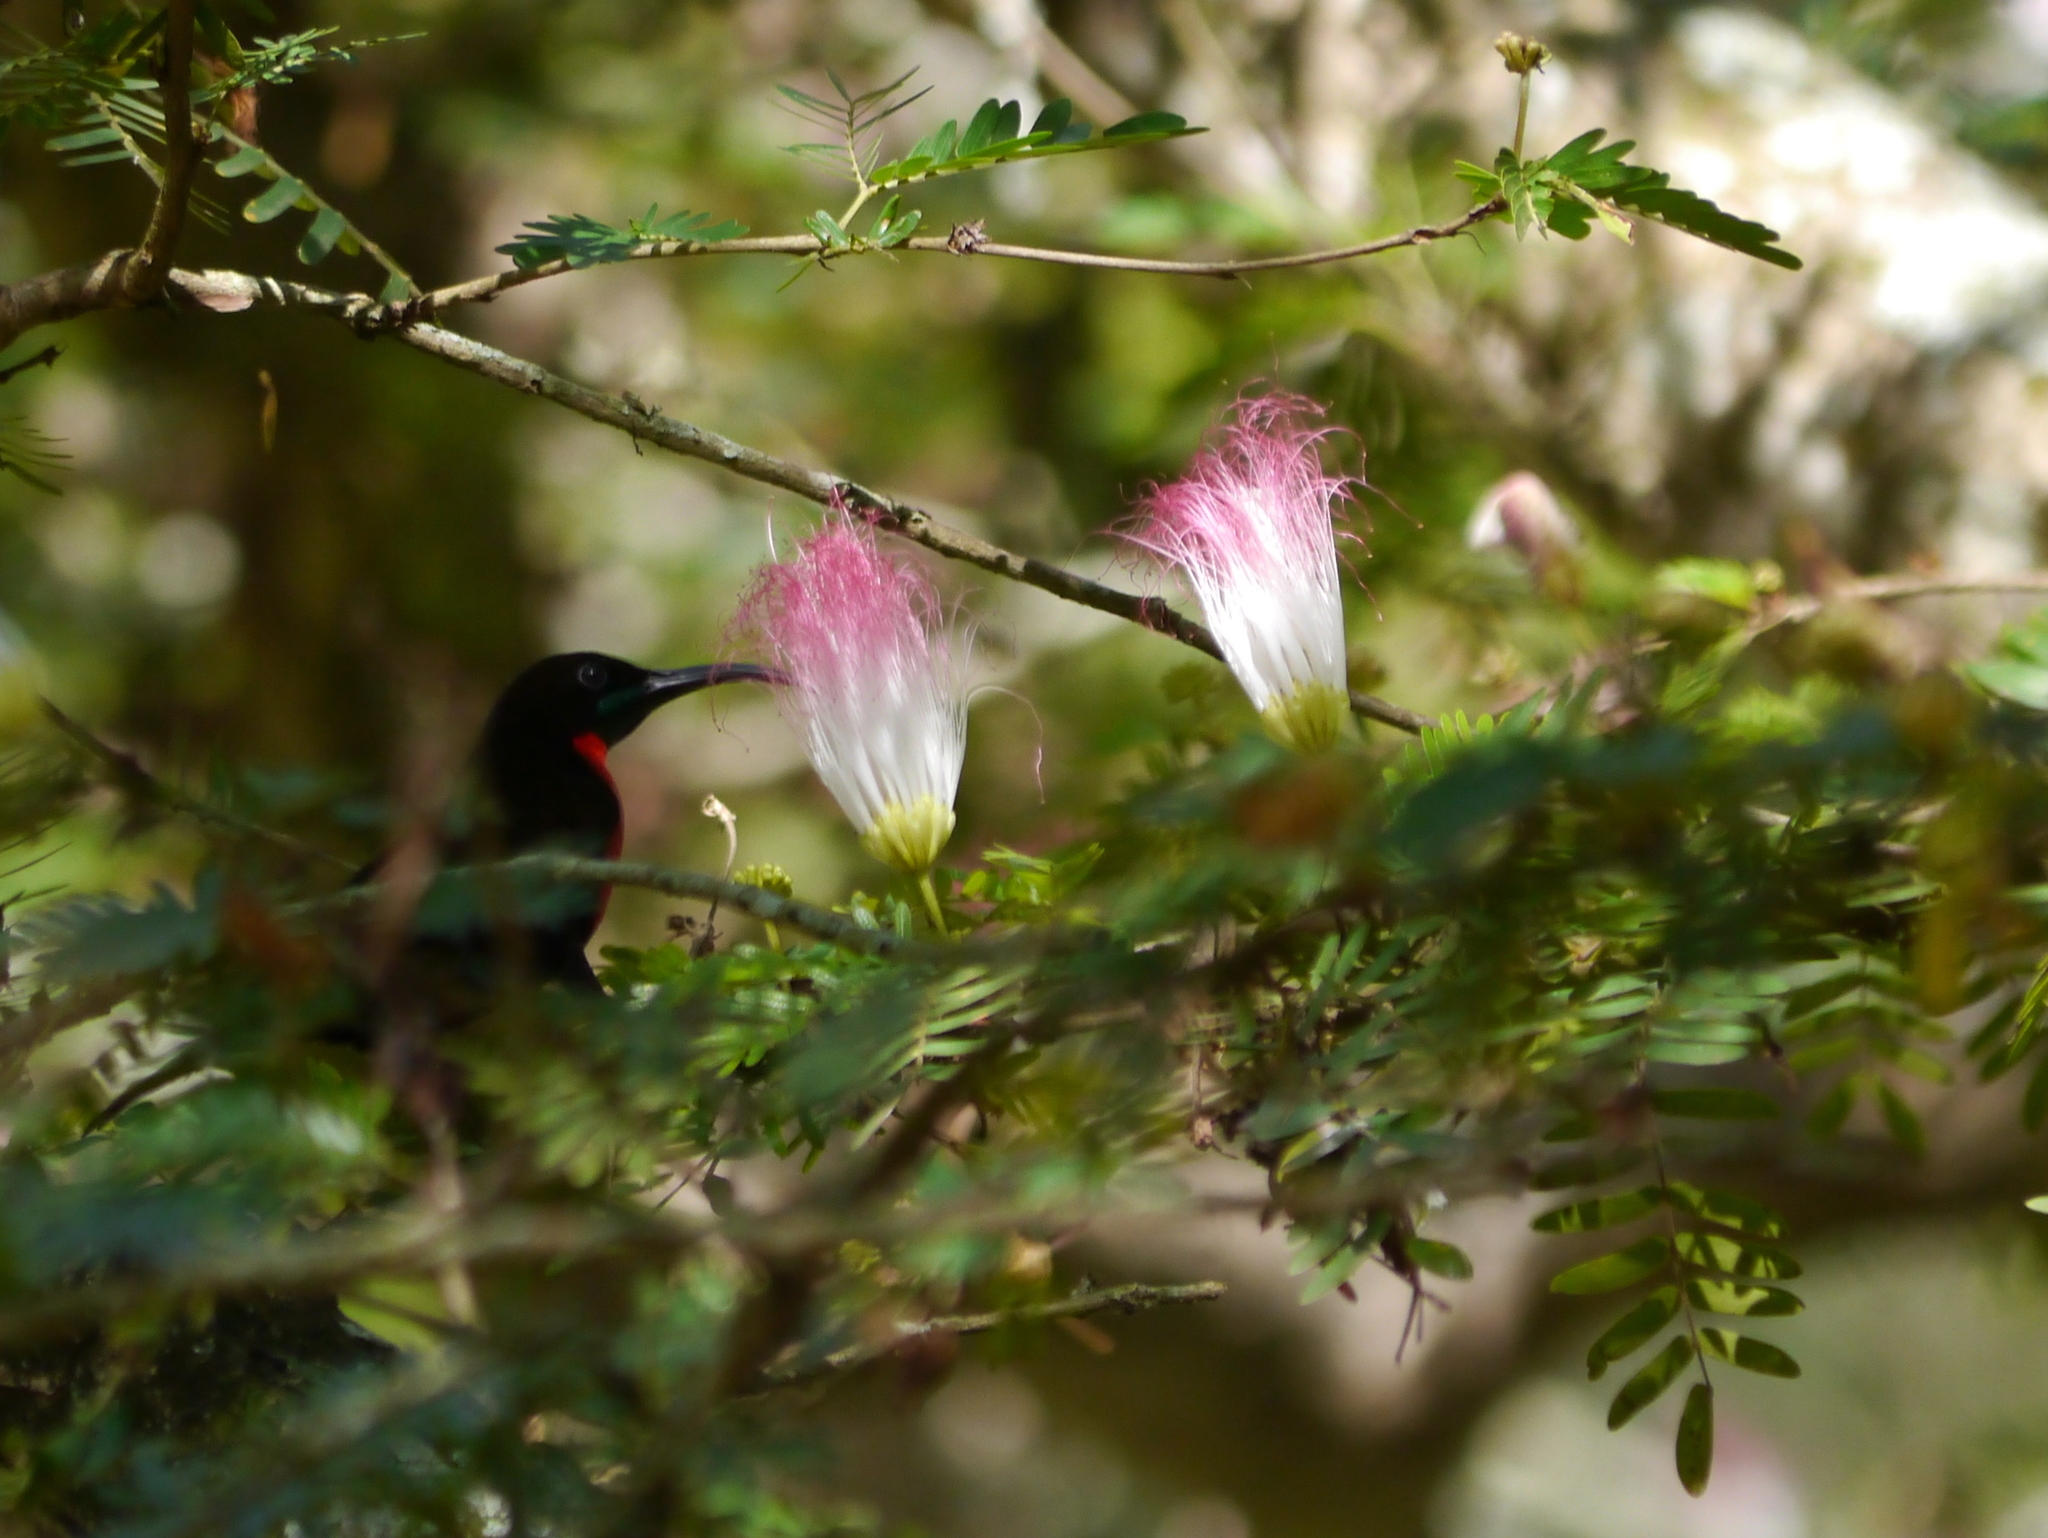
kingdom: Animalia
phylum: Chordata
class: Aves
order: Passeriformes
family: Nectariniidae
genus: Chalcomitra
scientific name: Chalcomitra senegalensis
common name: Scarlet-chested sunbird
